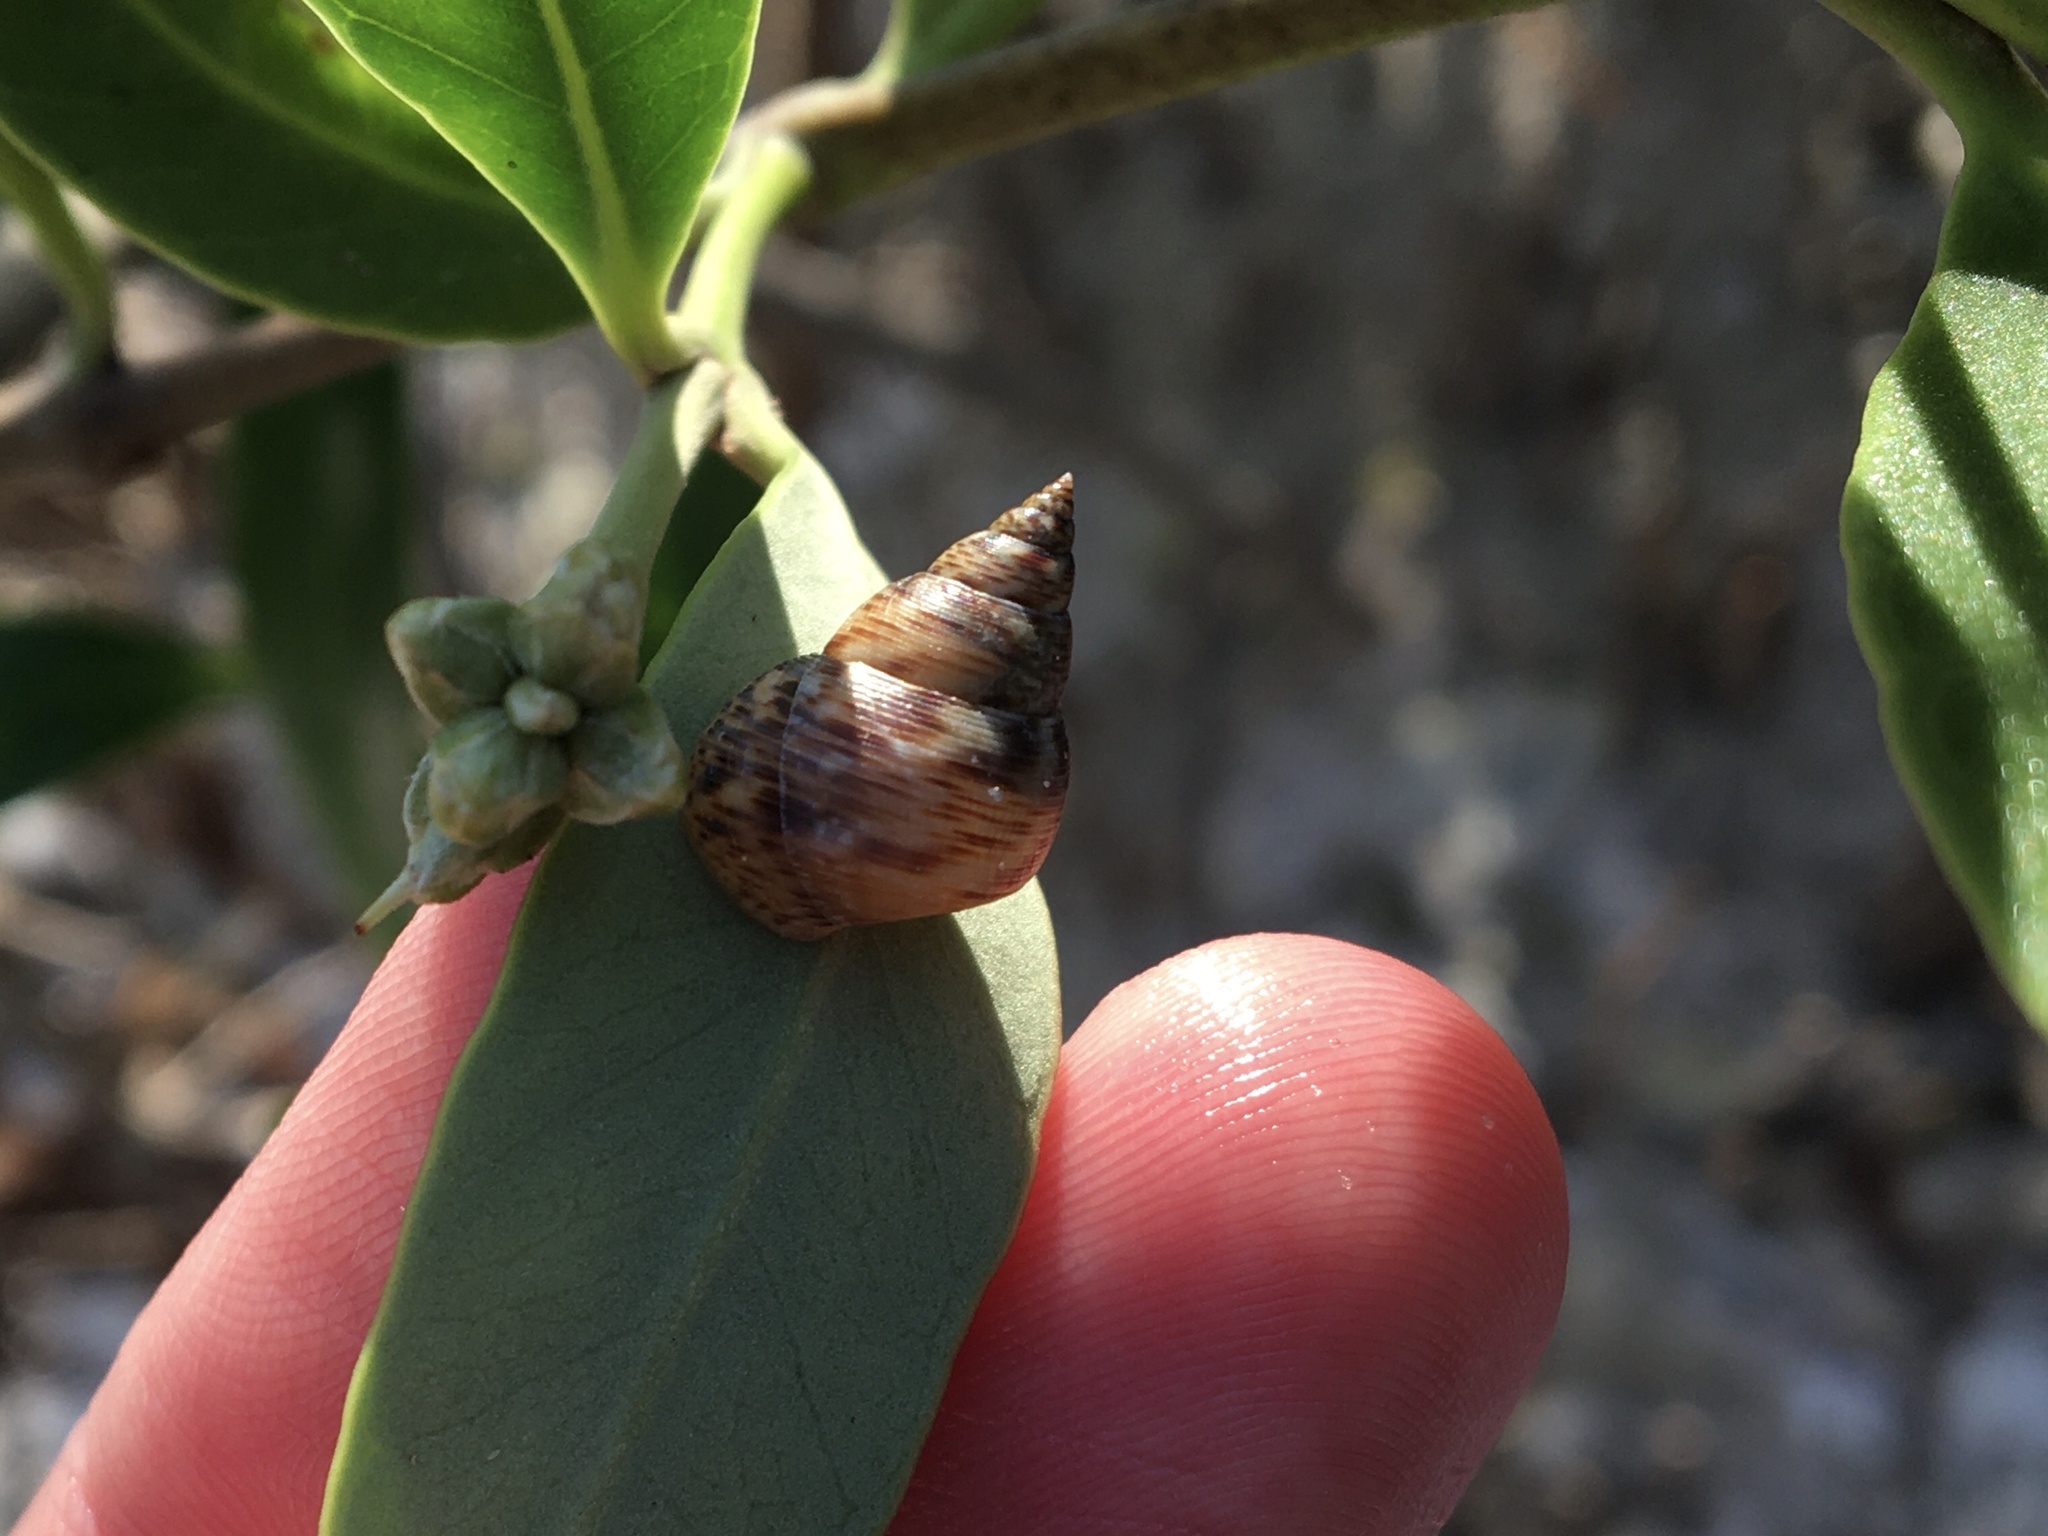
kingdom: Animalia
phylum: Mollusca
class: Gastropoda
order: Littorinimorpha
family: Littorinidae
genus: Littoraria
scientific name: Littoraria angulifera
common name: Mangrove periwinkle
